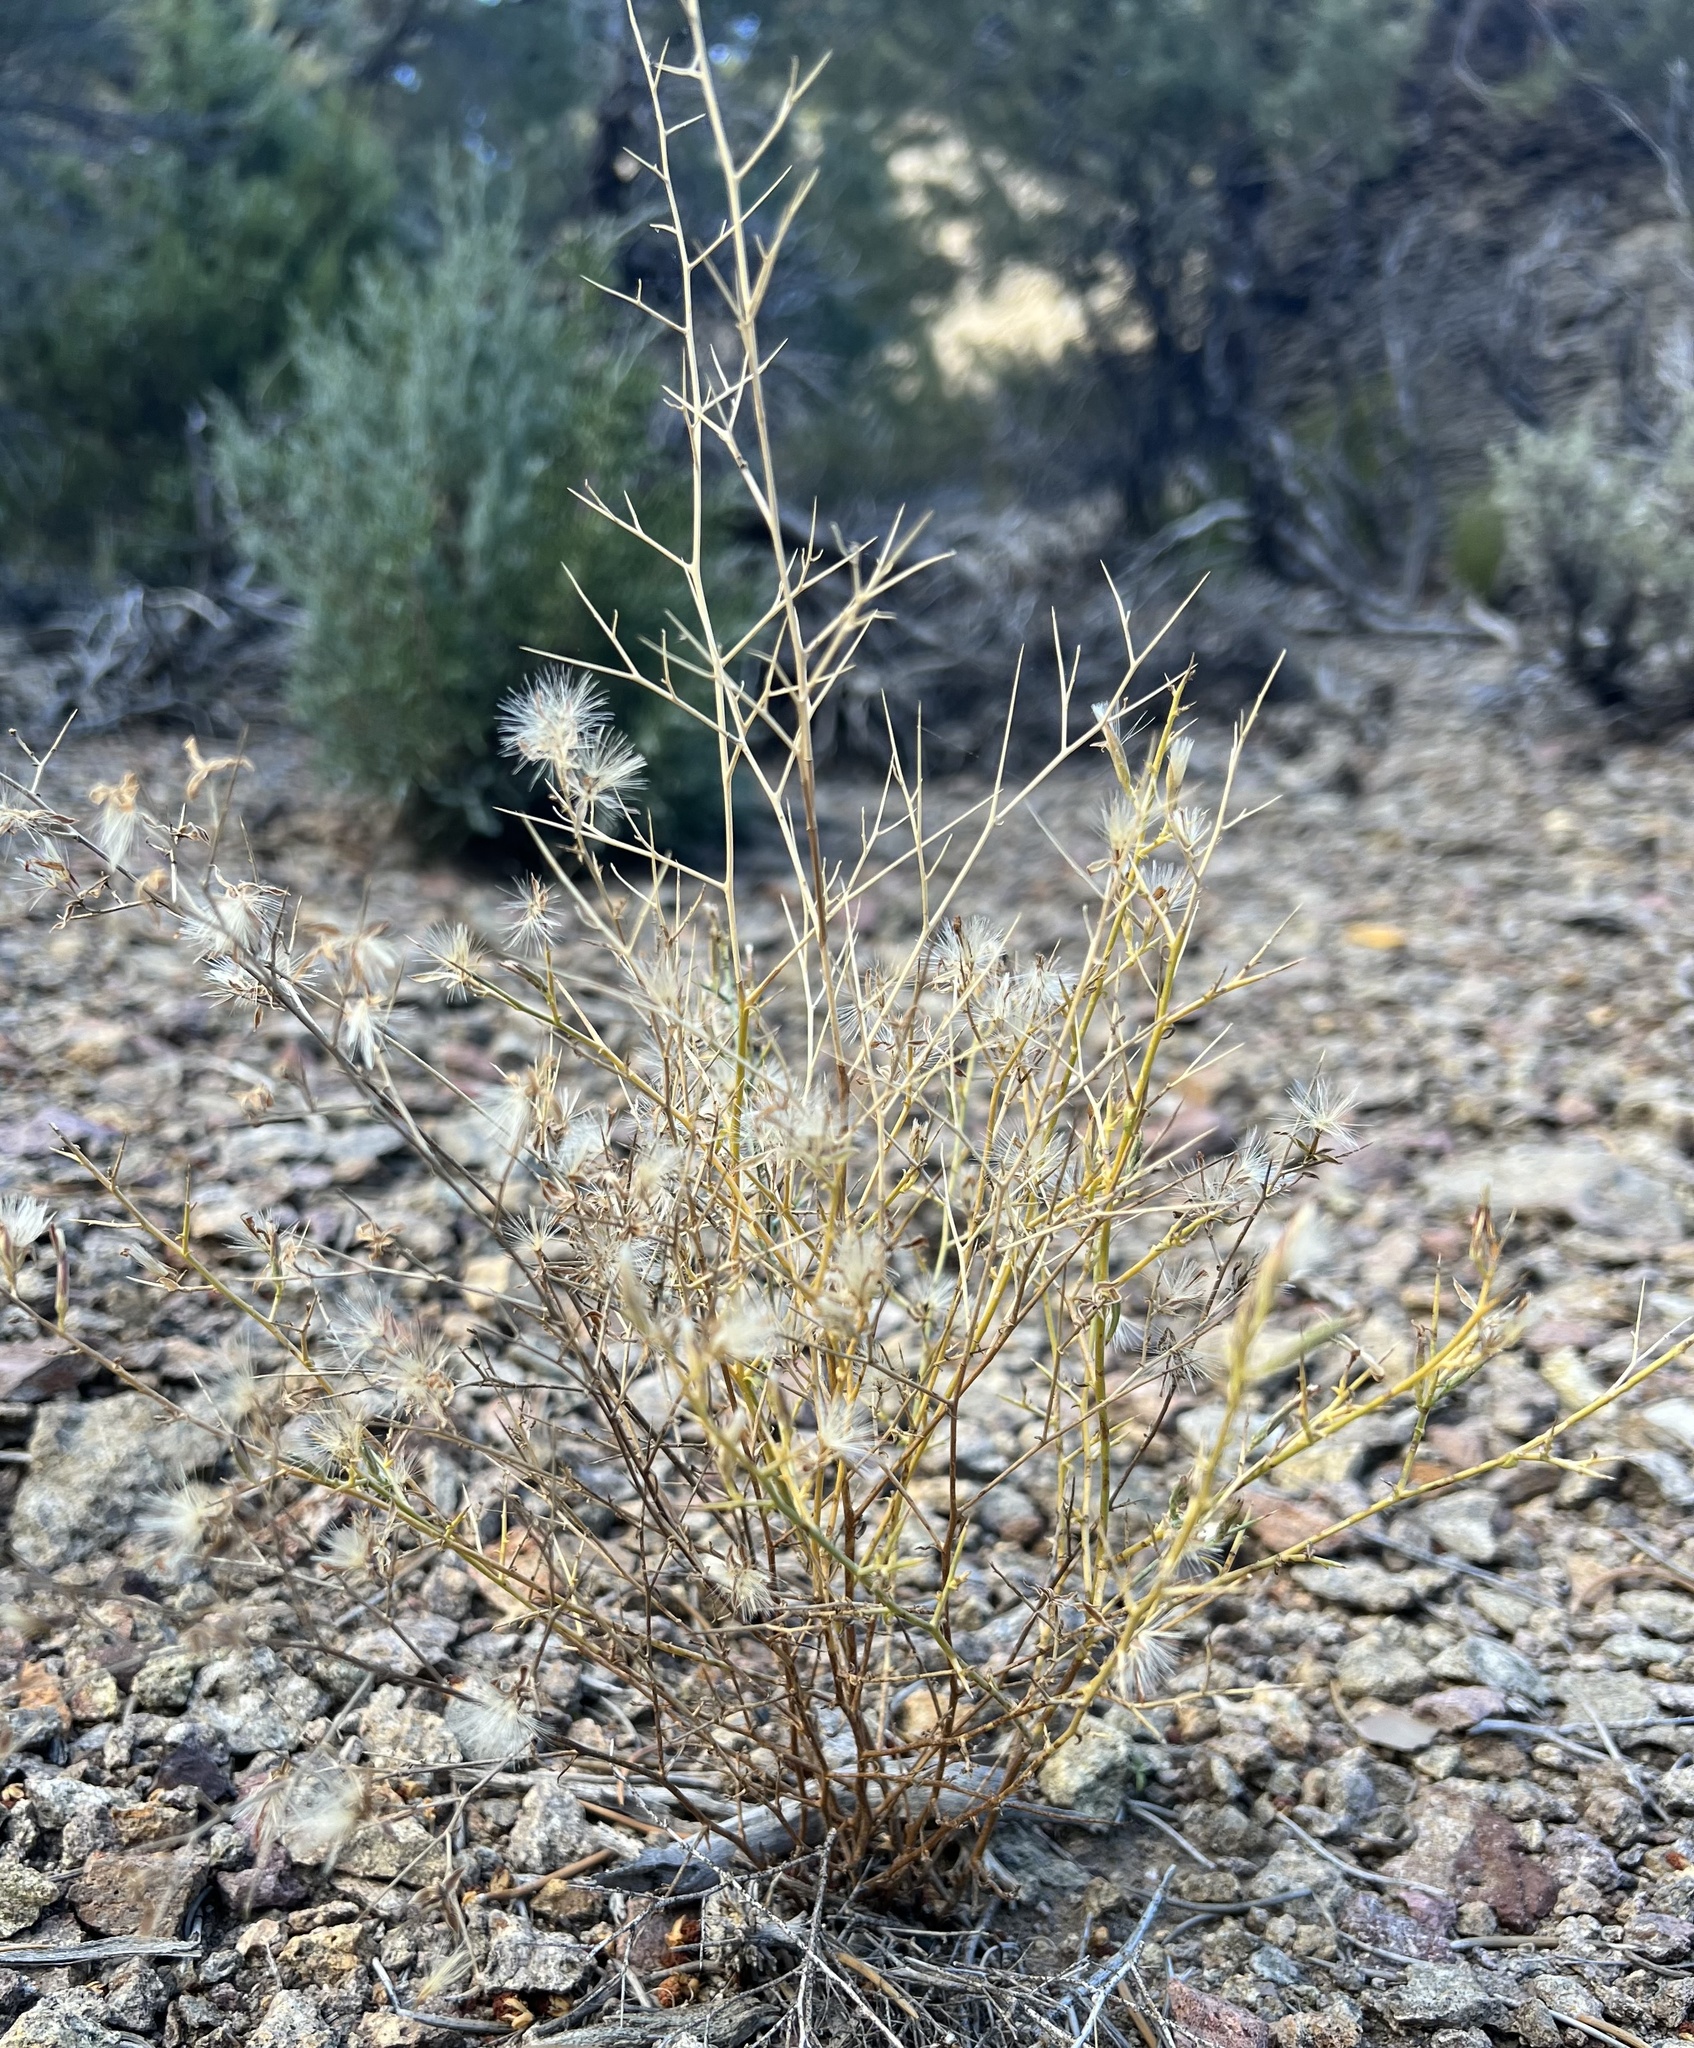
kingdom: Plantae
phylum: Tracheophyta
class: Magnoliopsida
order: Asterales
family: Asteraceae
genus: Pleiacanthus
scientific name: Pleiacanthus spinosus
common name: Thorny skeleton-weed
